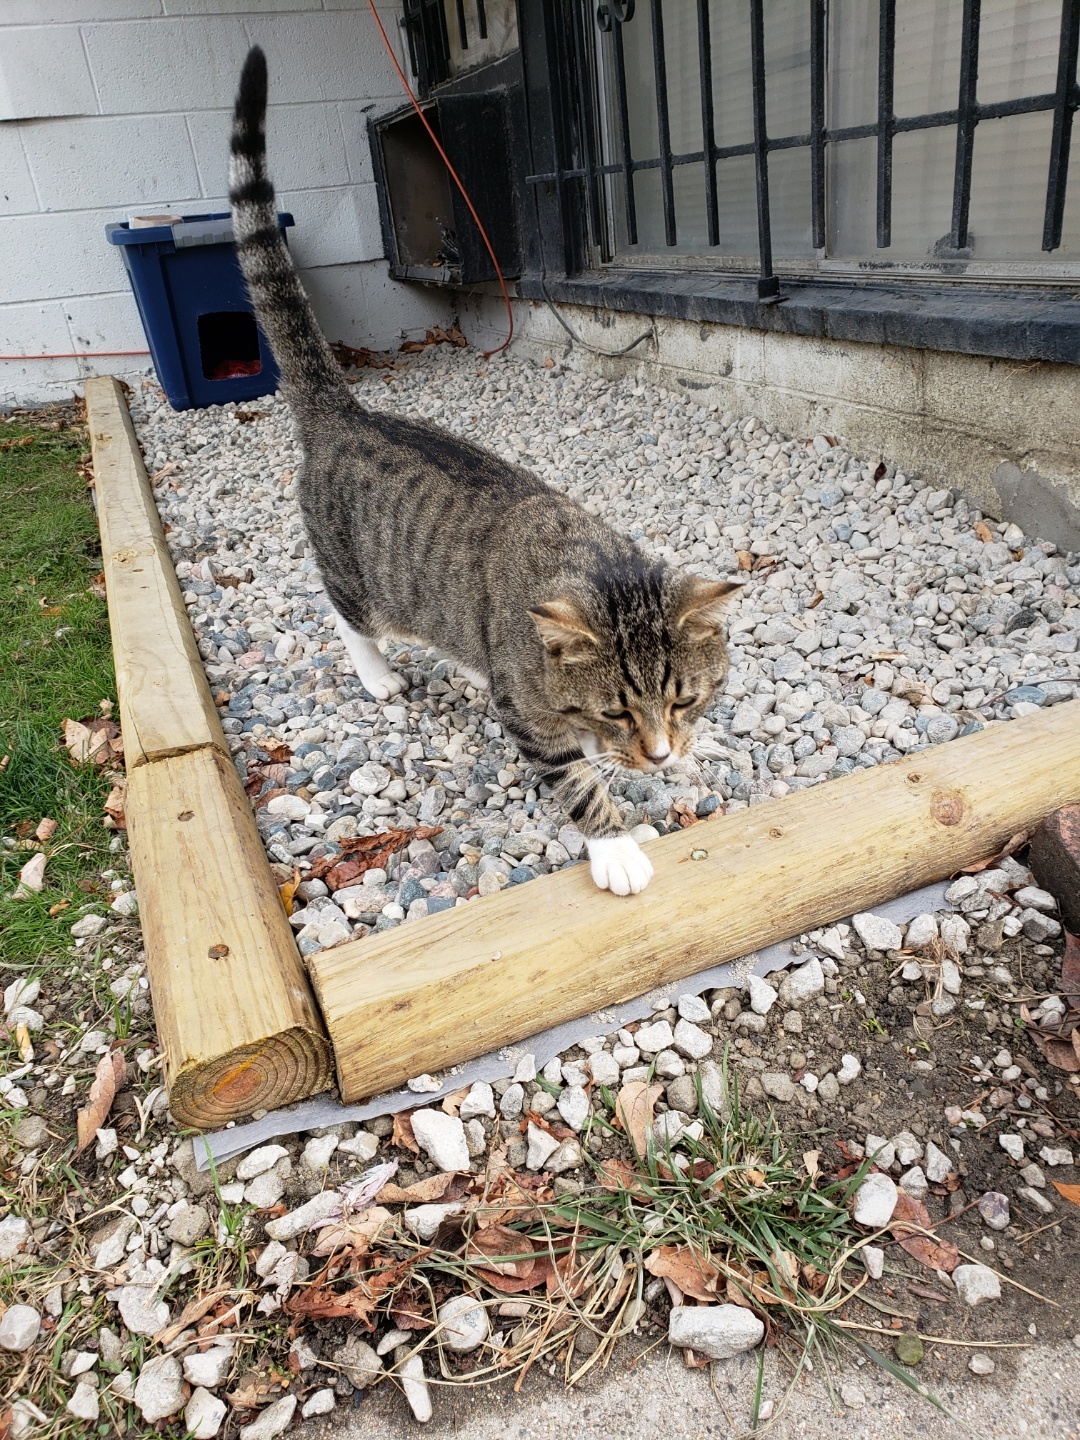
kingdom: Animalia
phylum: Chordata
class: Mammalia
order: Carnivora
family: Felidae
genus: Felis
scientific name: Felis catus
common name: Domestic cat
